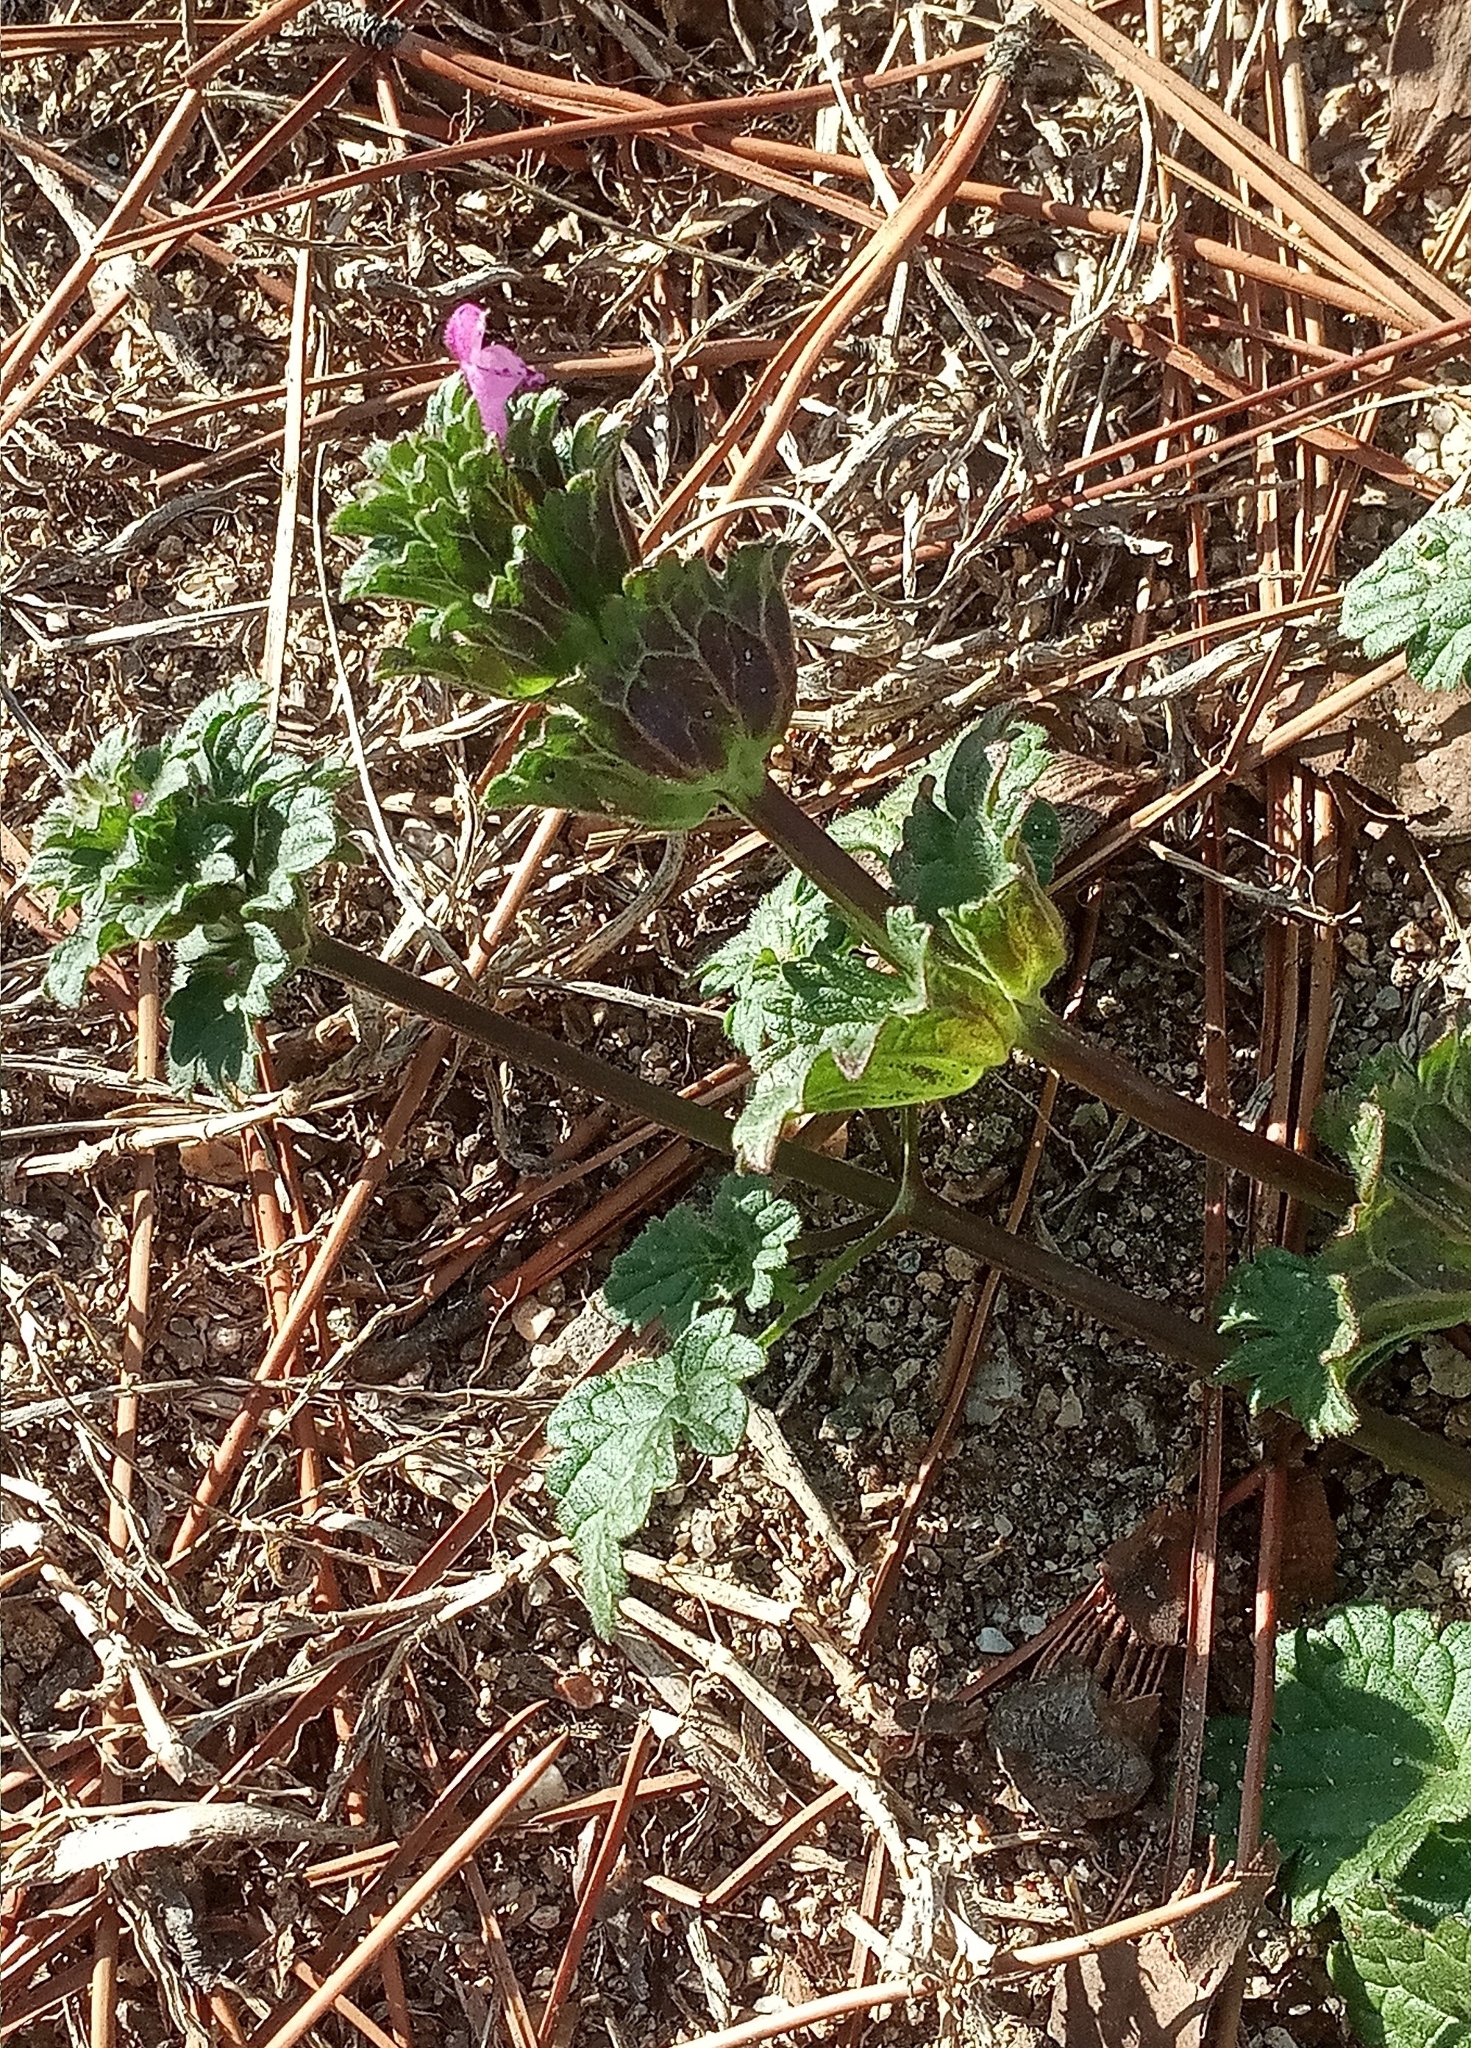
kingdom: Plantae
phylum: Tracheophyta
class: Magnoliopsida
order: Lamiales
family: Lamiaceae
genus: Lamium
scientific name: Lamium amplexicaule
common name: Henbit dead-nettle
